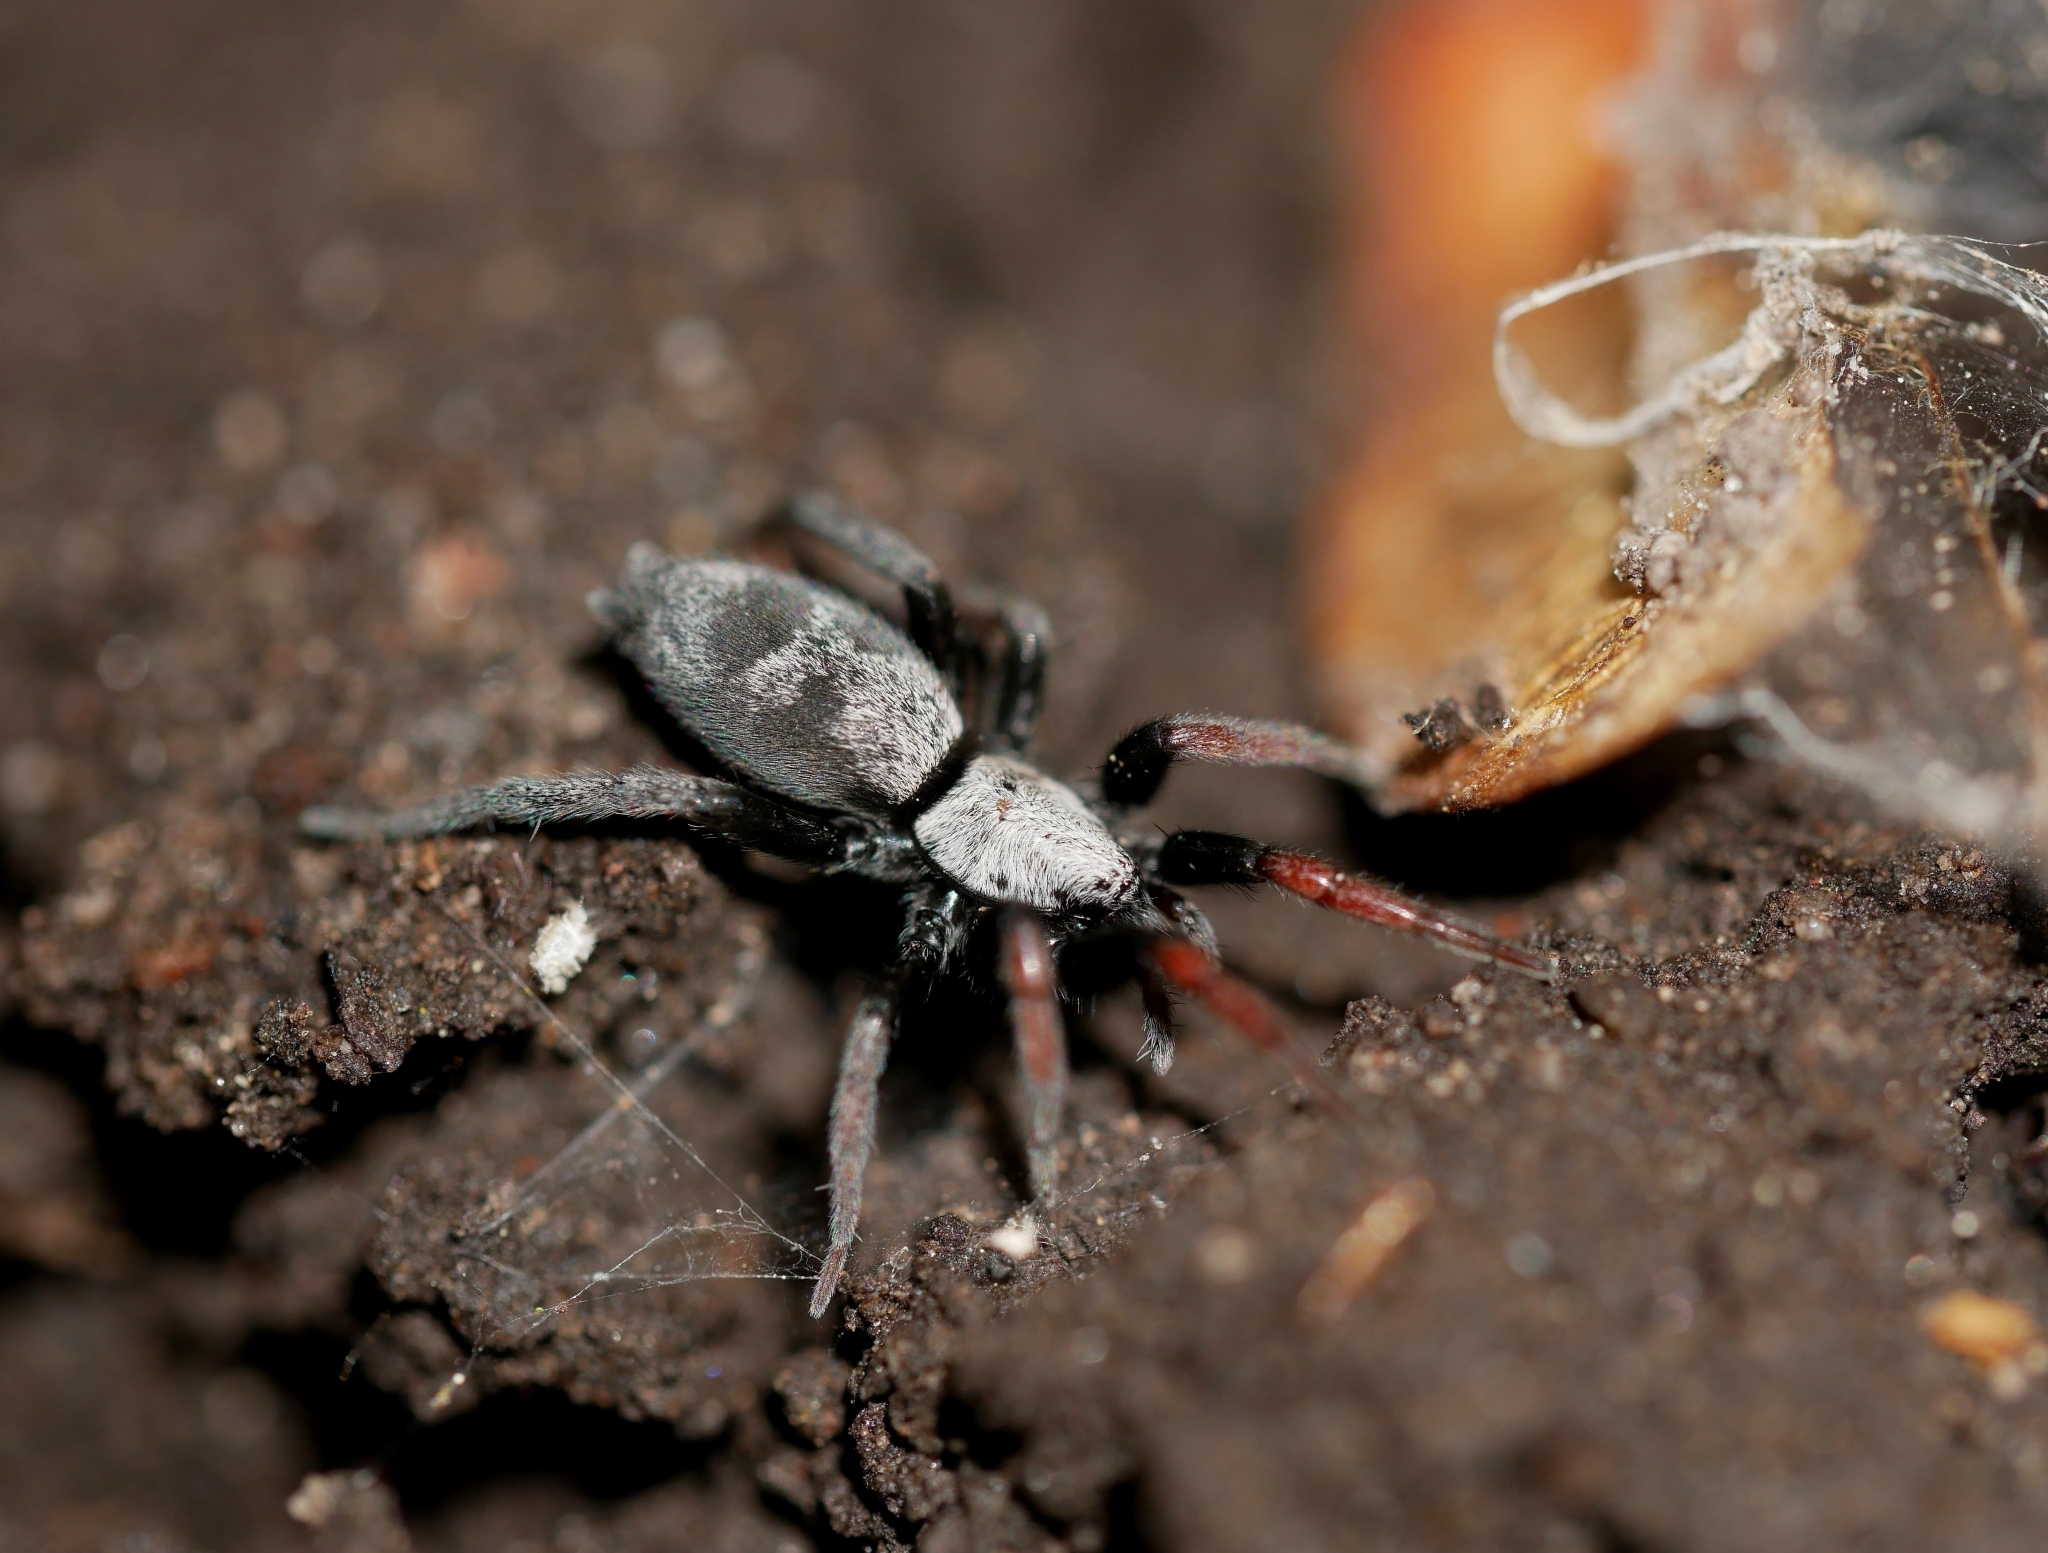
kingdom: Animalia
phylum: Arthropoda
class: Arachnida
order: Araneae
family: Gnaphosidae
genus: Sergiolus
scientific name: Sergiolus stella
